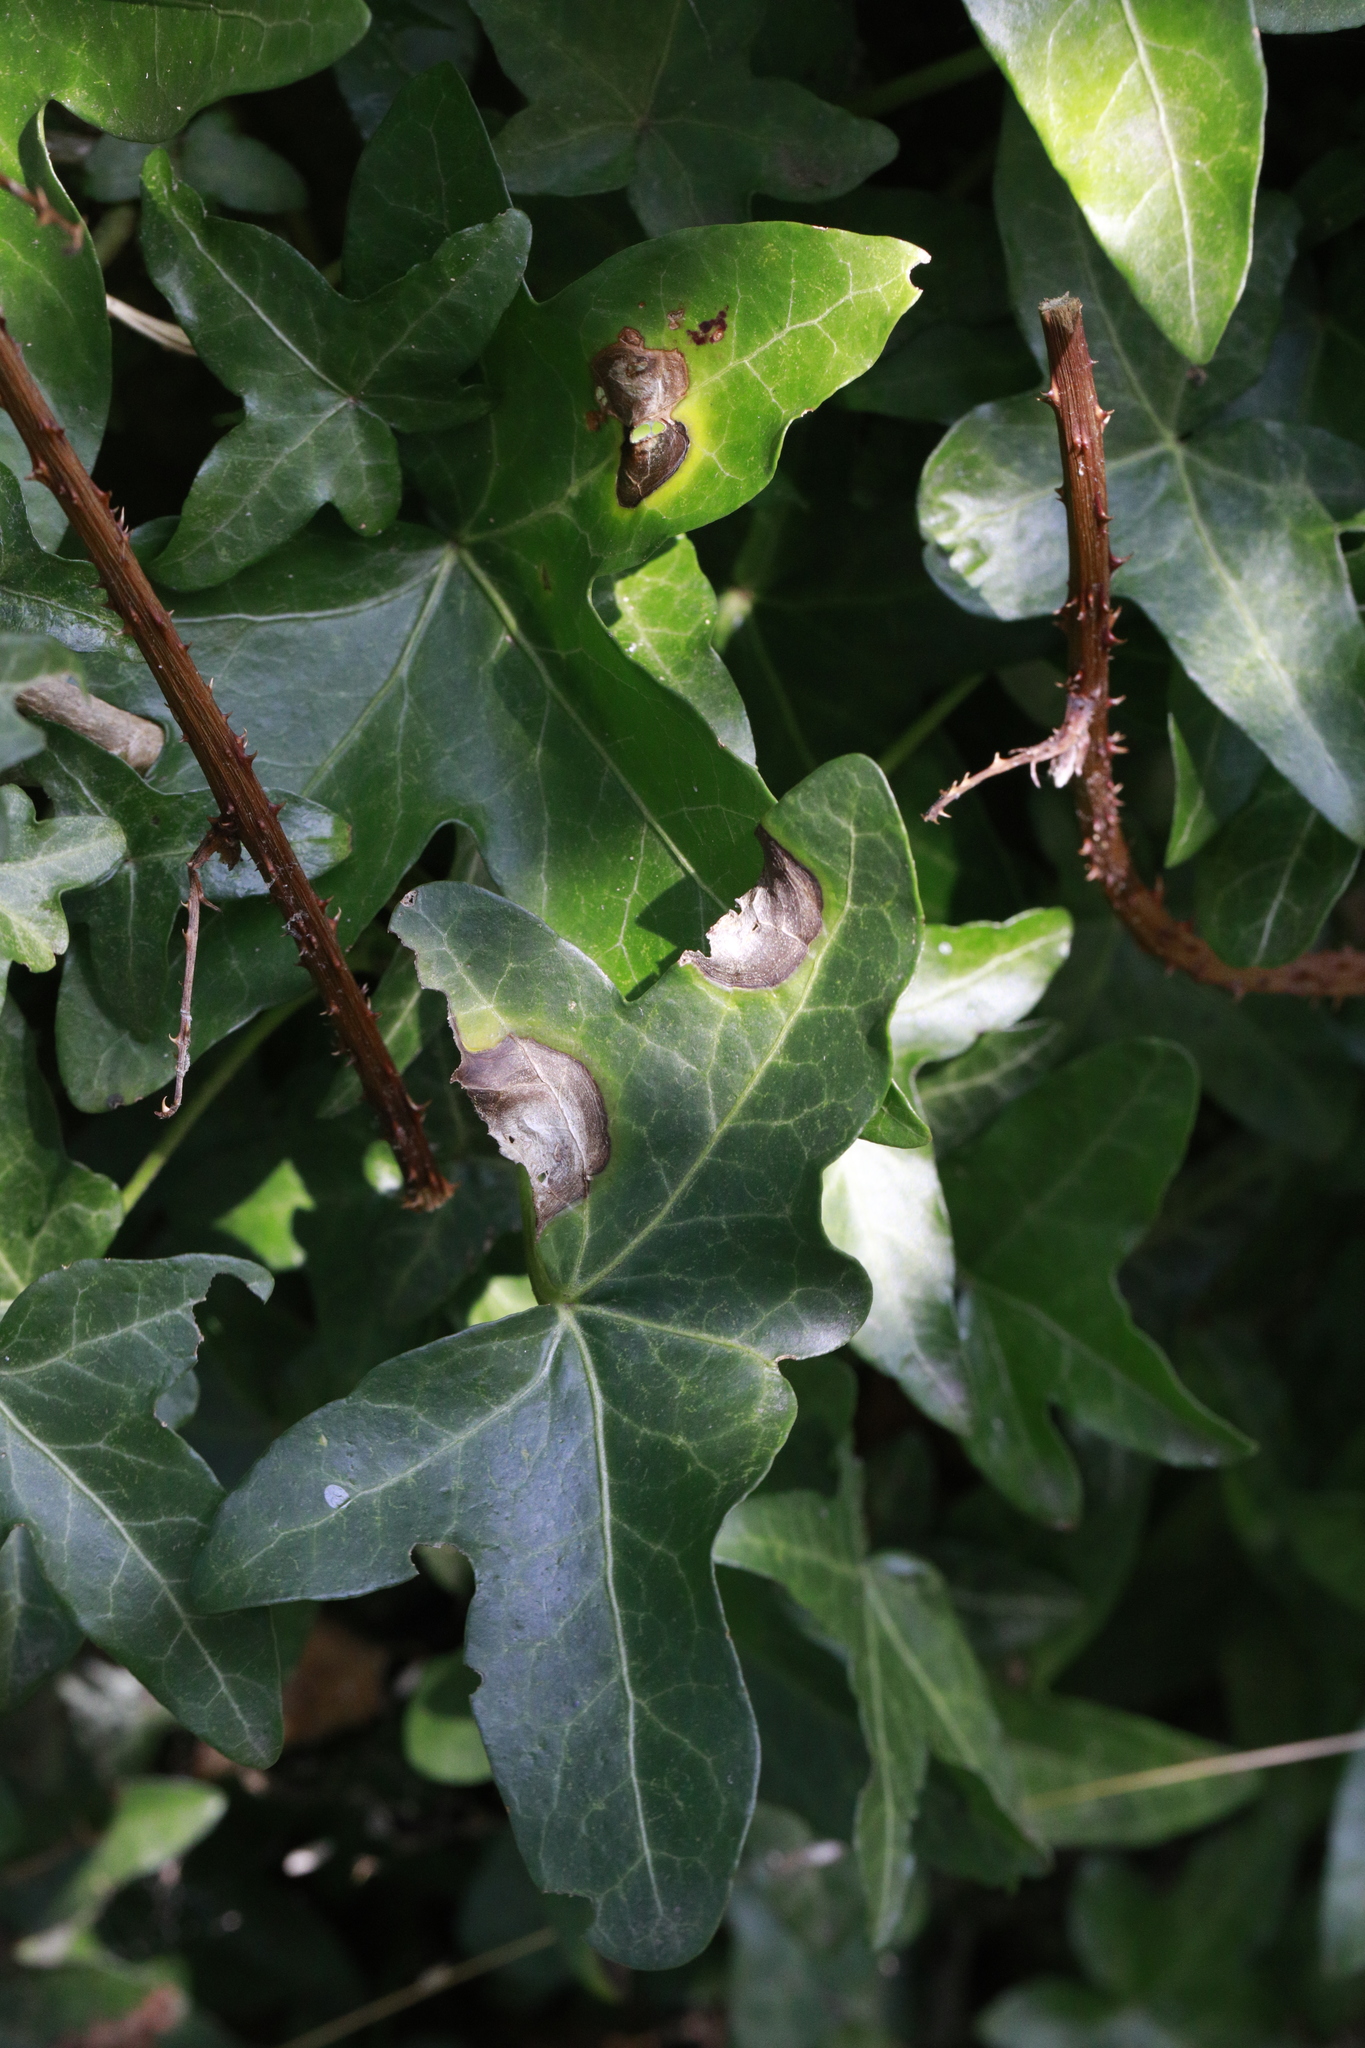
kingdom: Fungi
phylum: Ascomycota
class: Dothideomycetes
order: Pleosporales
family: Didymellaceae
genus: Boeremia
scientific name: Boeremia hedericola
